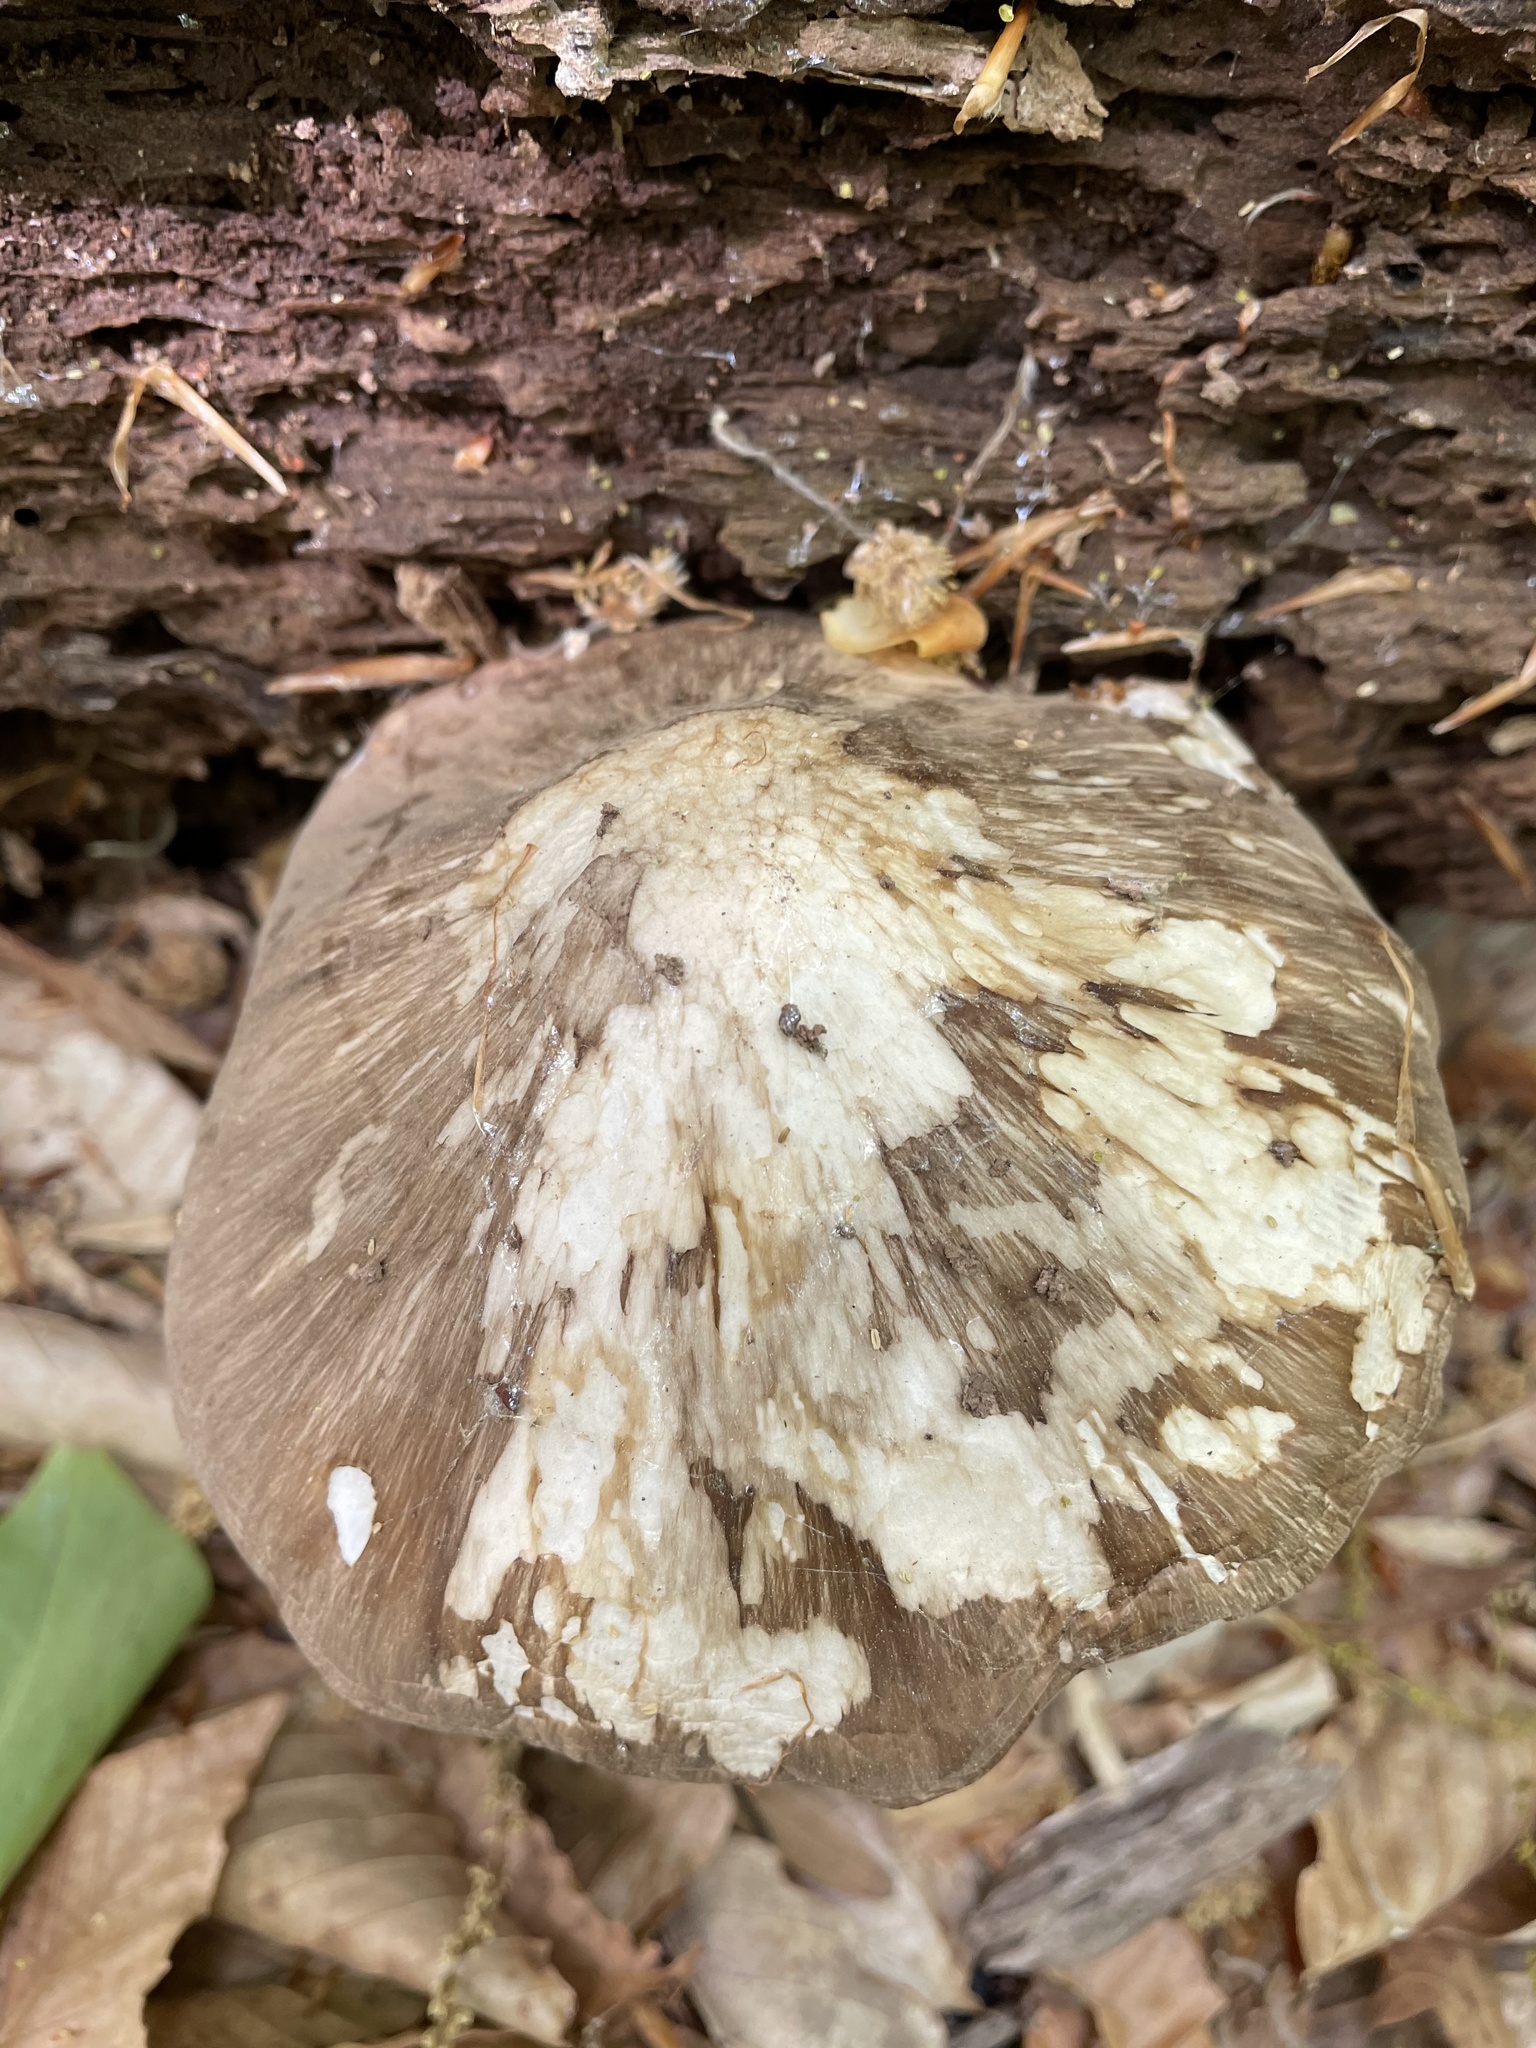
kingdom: Fungi
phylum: Basidiomycota
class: Agaricomycetes
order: Agaricales
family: Pluteaceae
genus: Pluteus
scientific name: Pluteus cervinus
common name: Deer shield
